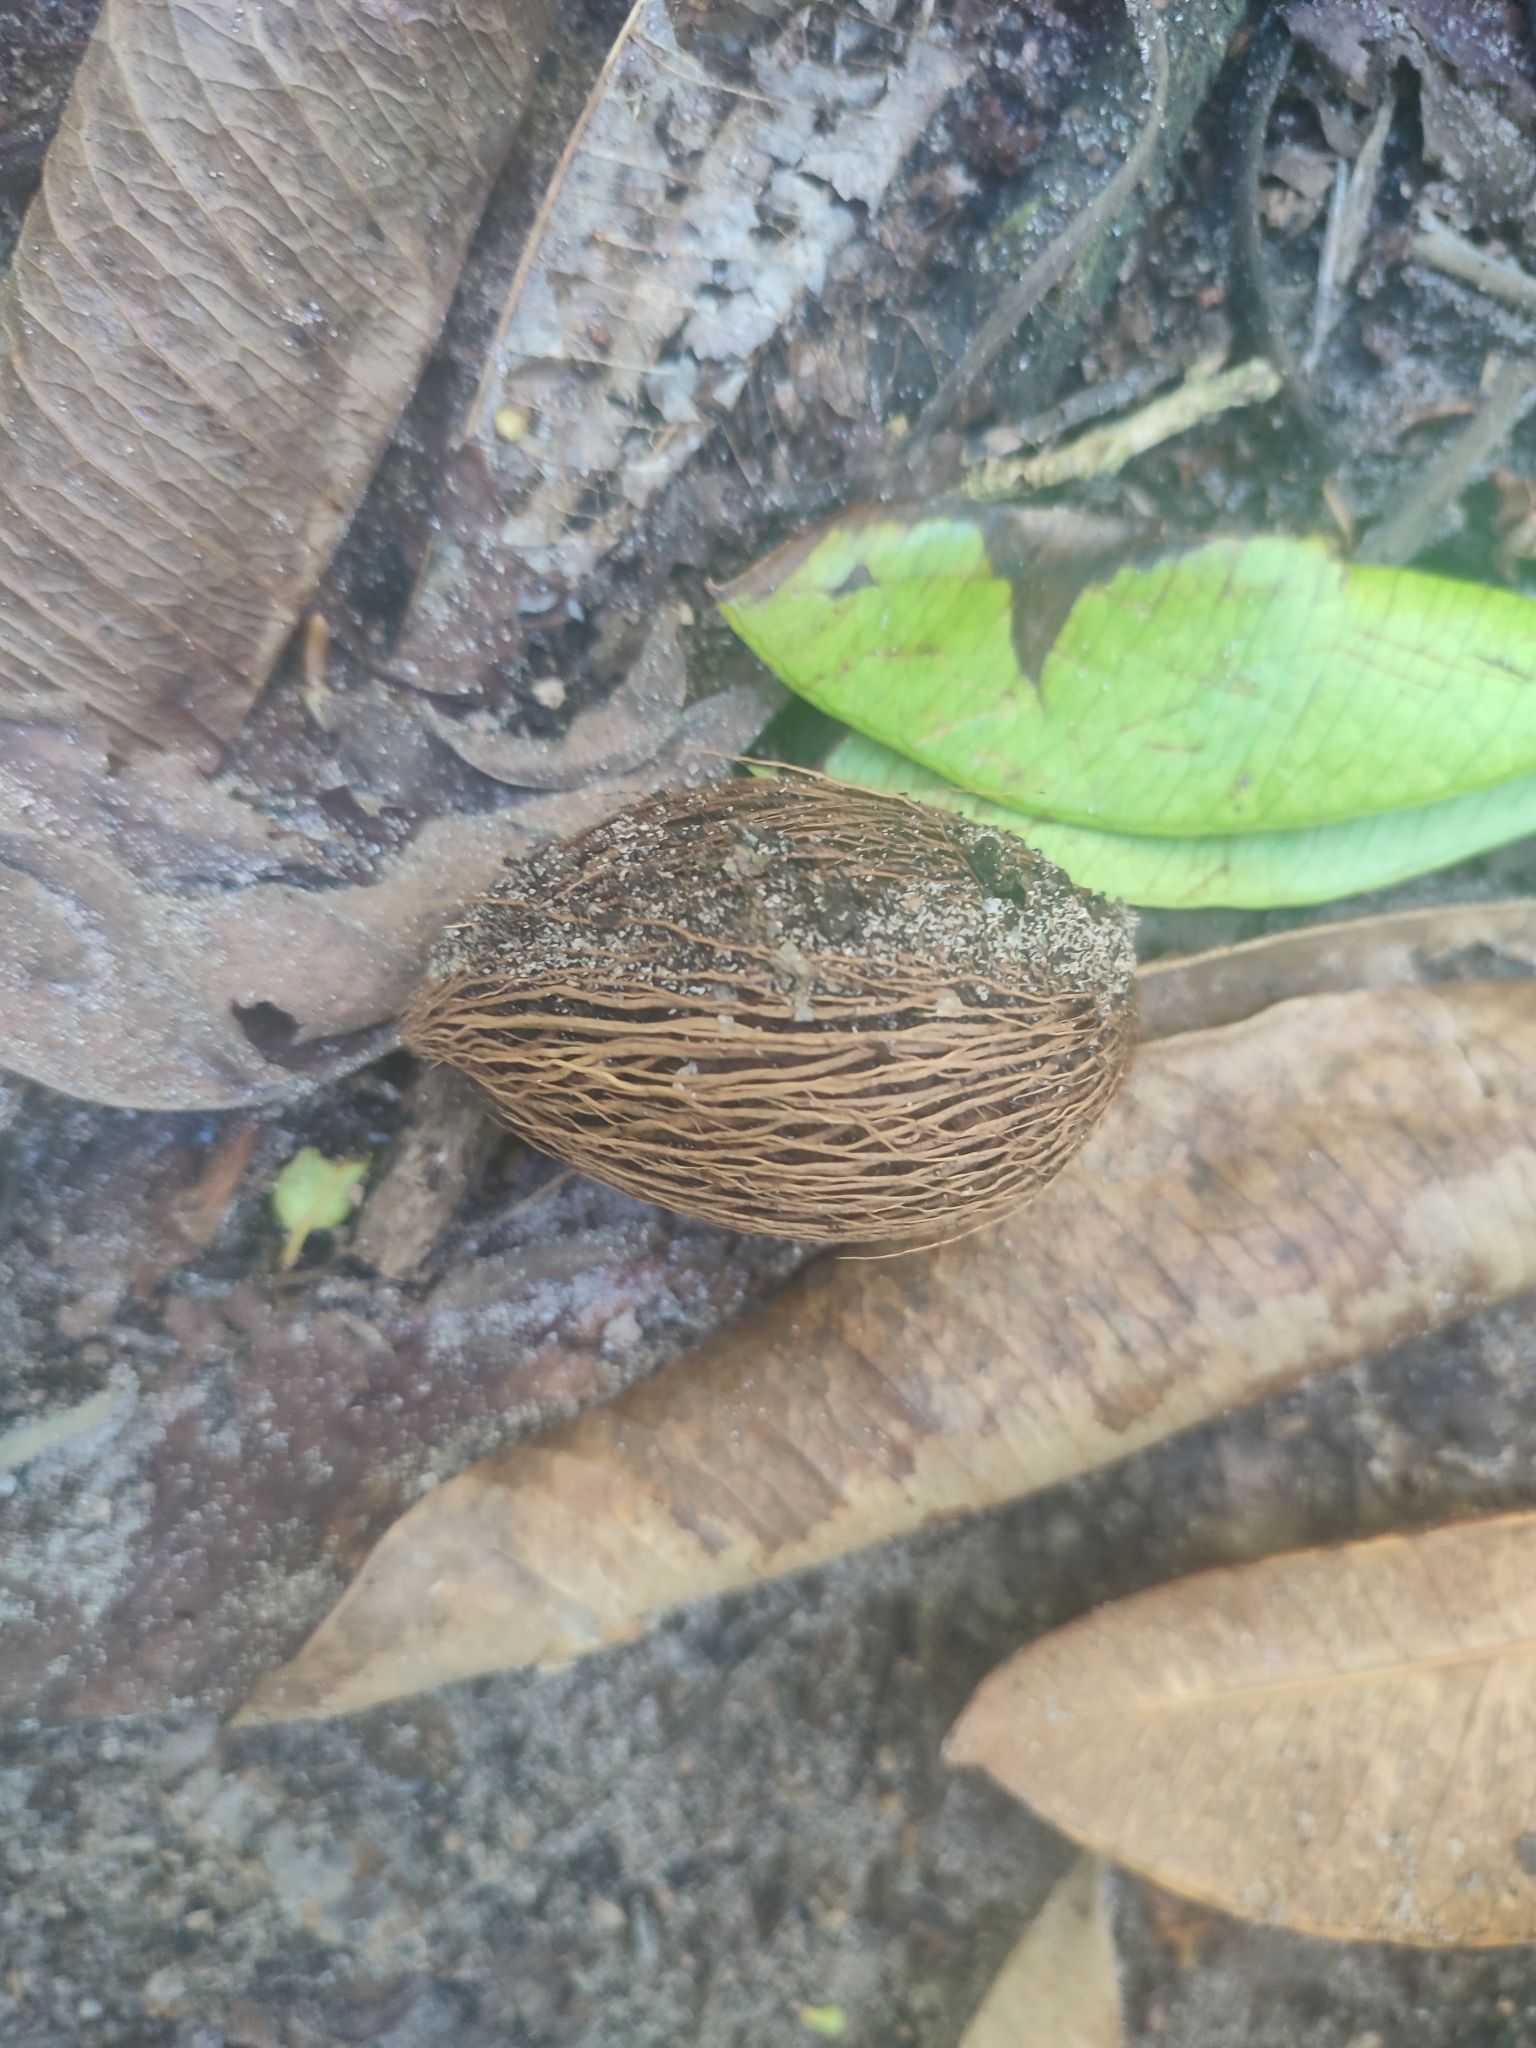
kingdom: Plantae
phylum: Tracheophyta
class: Magnoliopsida
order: Gentianales
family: Apocynaceae
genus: Ochrosia
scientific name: Ochrosia oppositifolia
